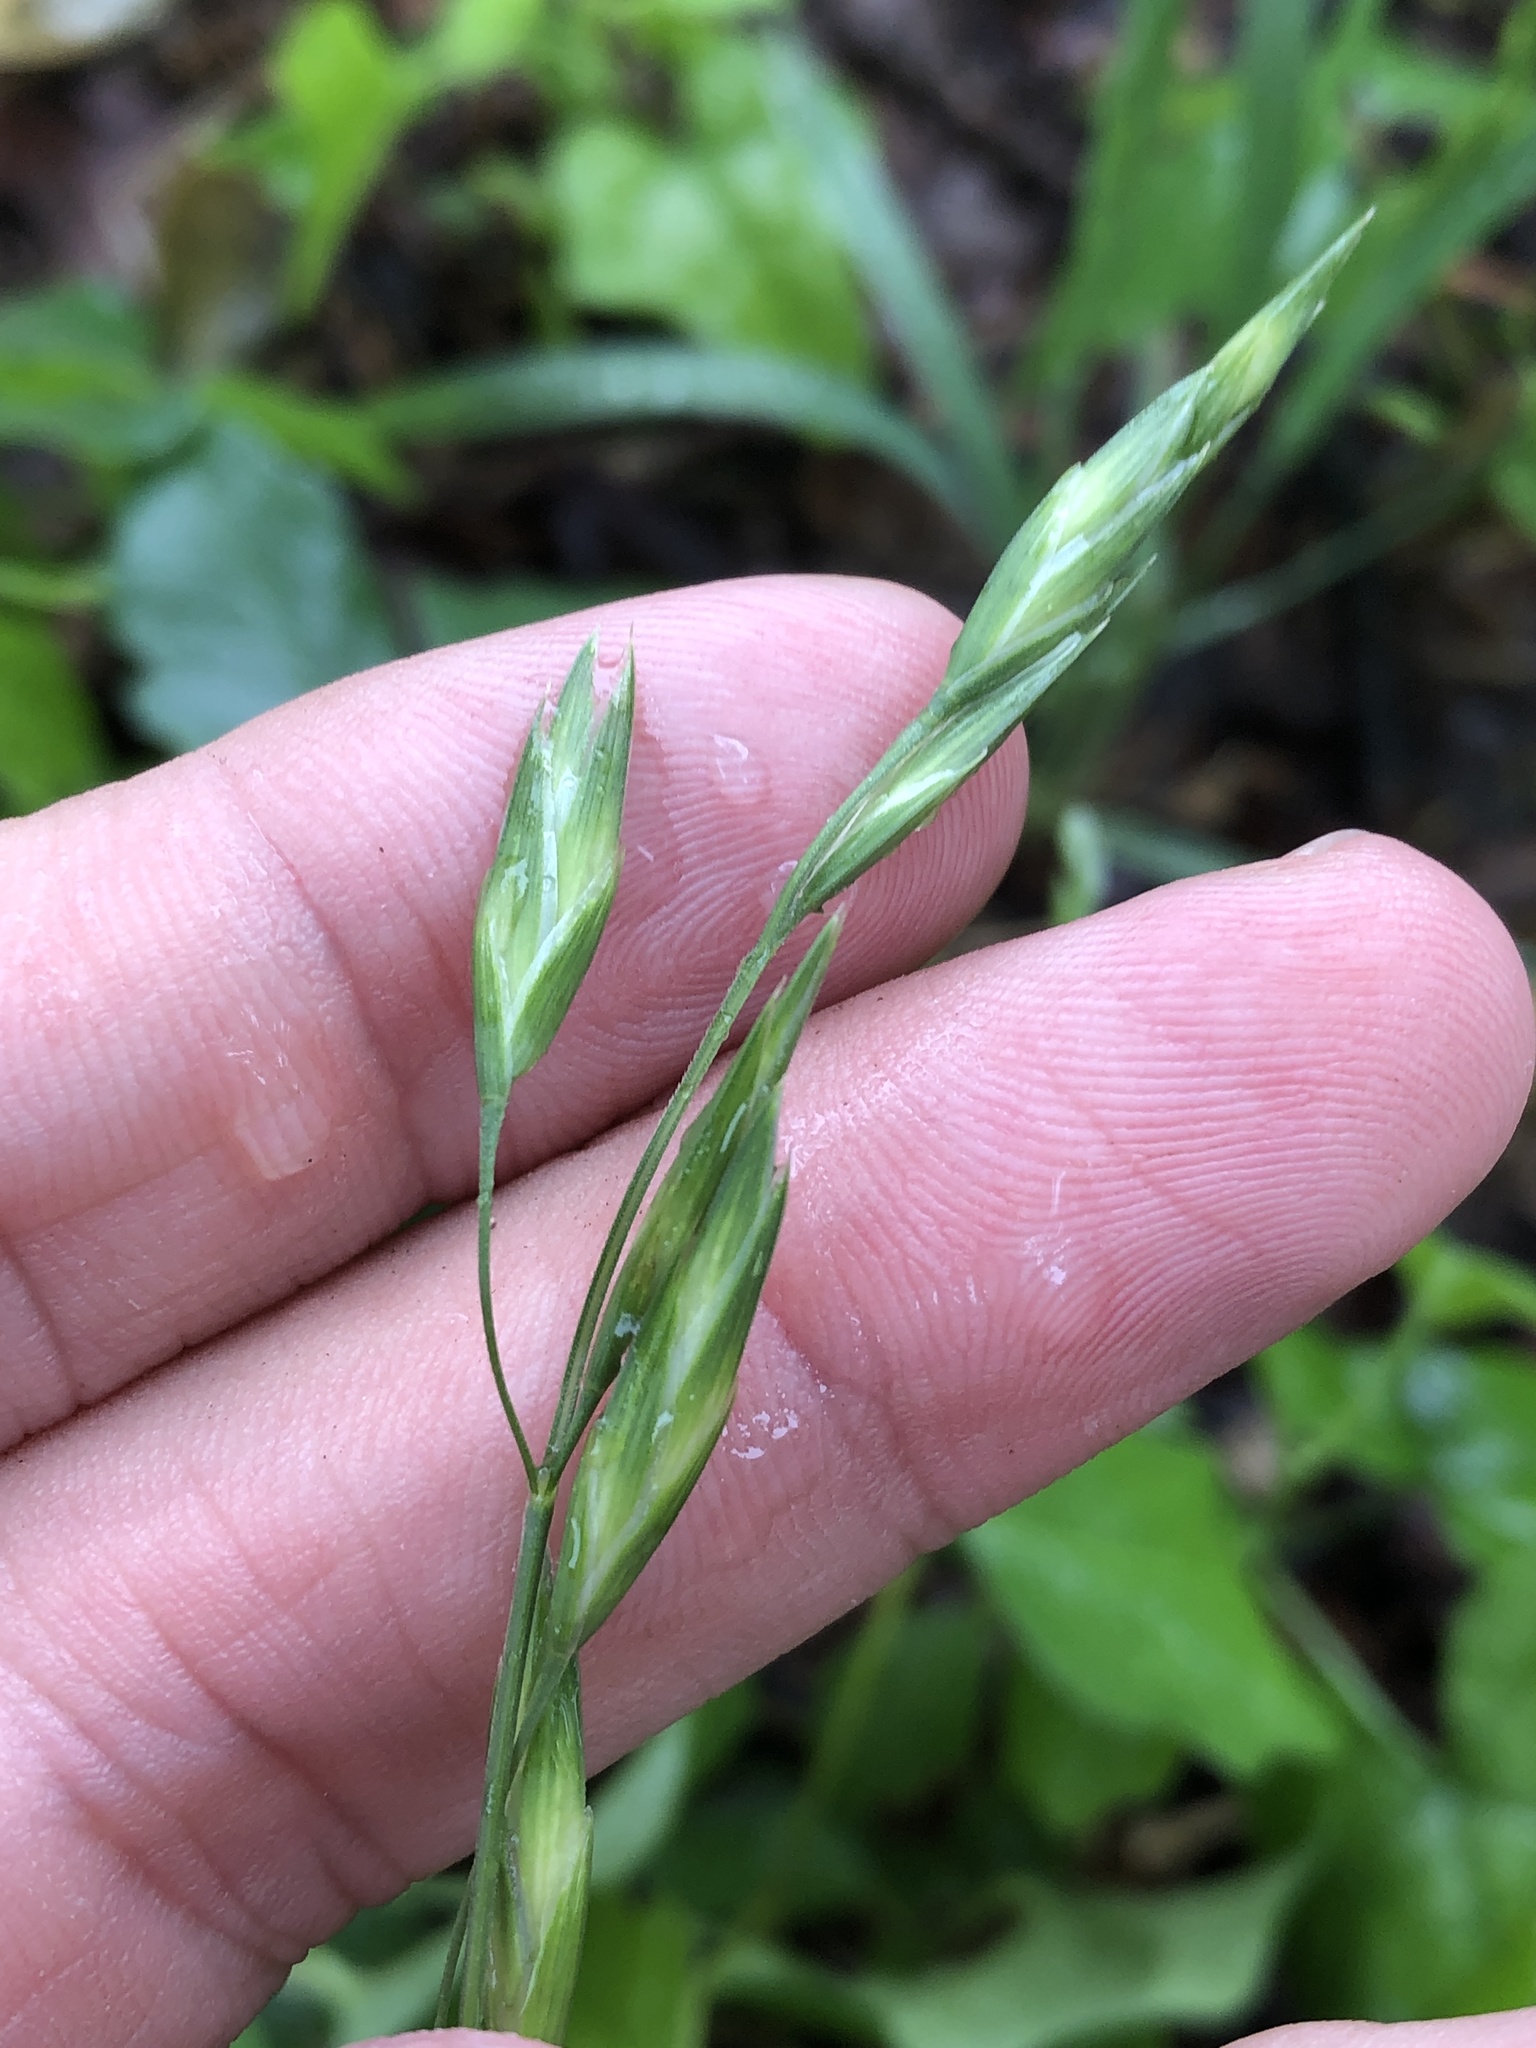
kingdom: Plantae
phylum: Tracheophyta
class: Liliopsida
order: Poales
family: Poaceae
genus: Bromus
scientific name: Bromus catharticus
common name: Rescuegrass
